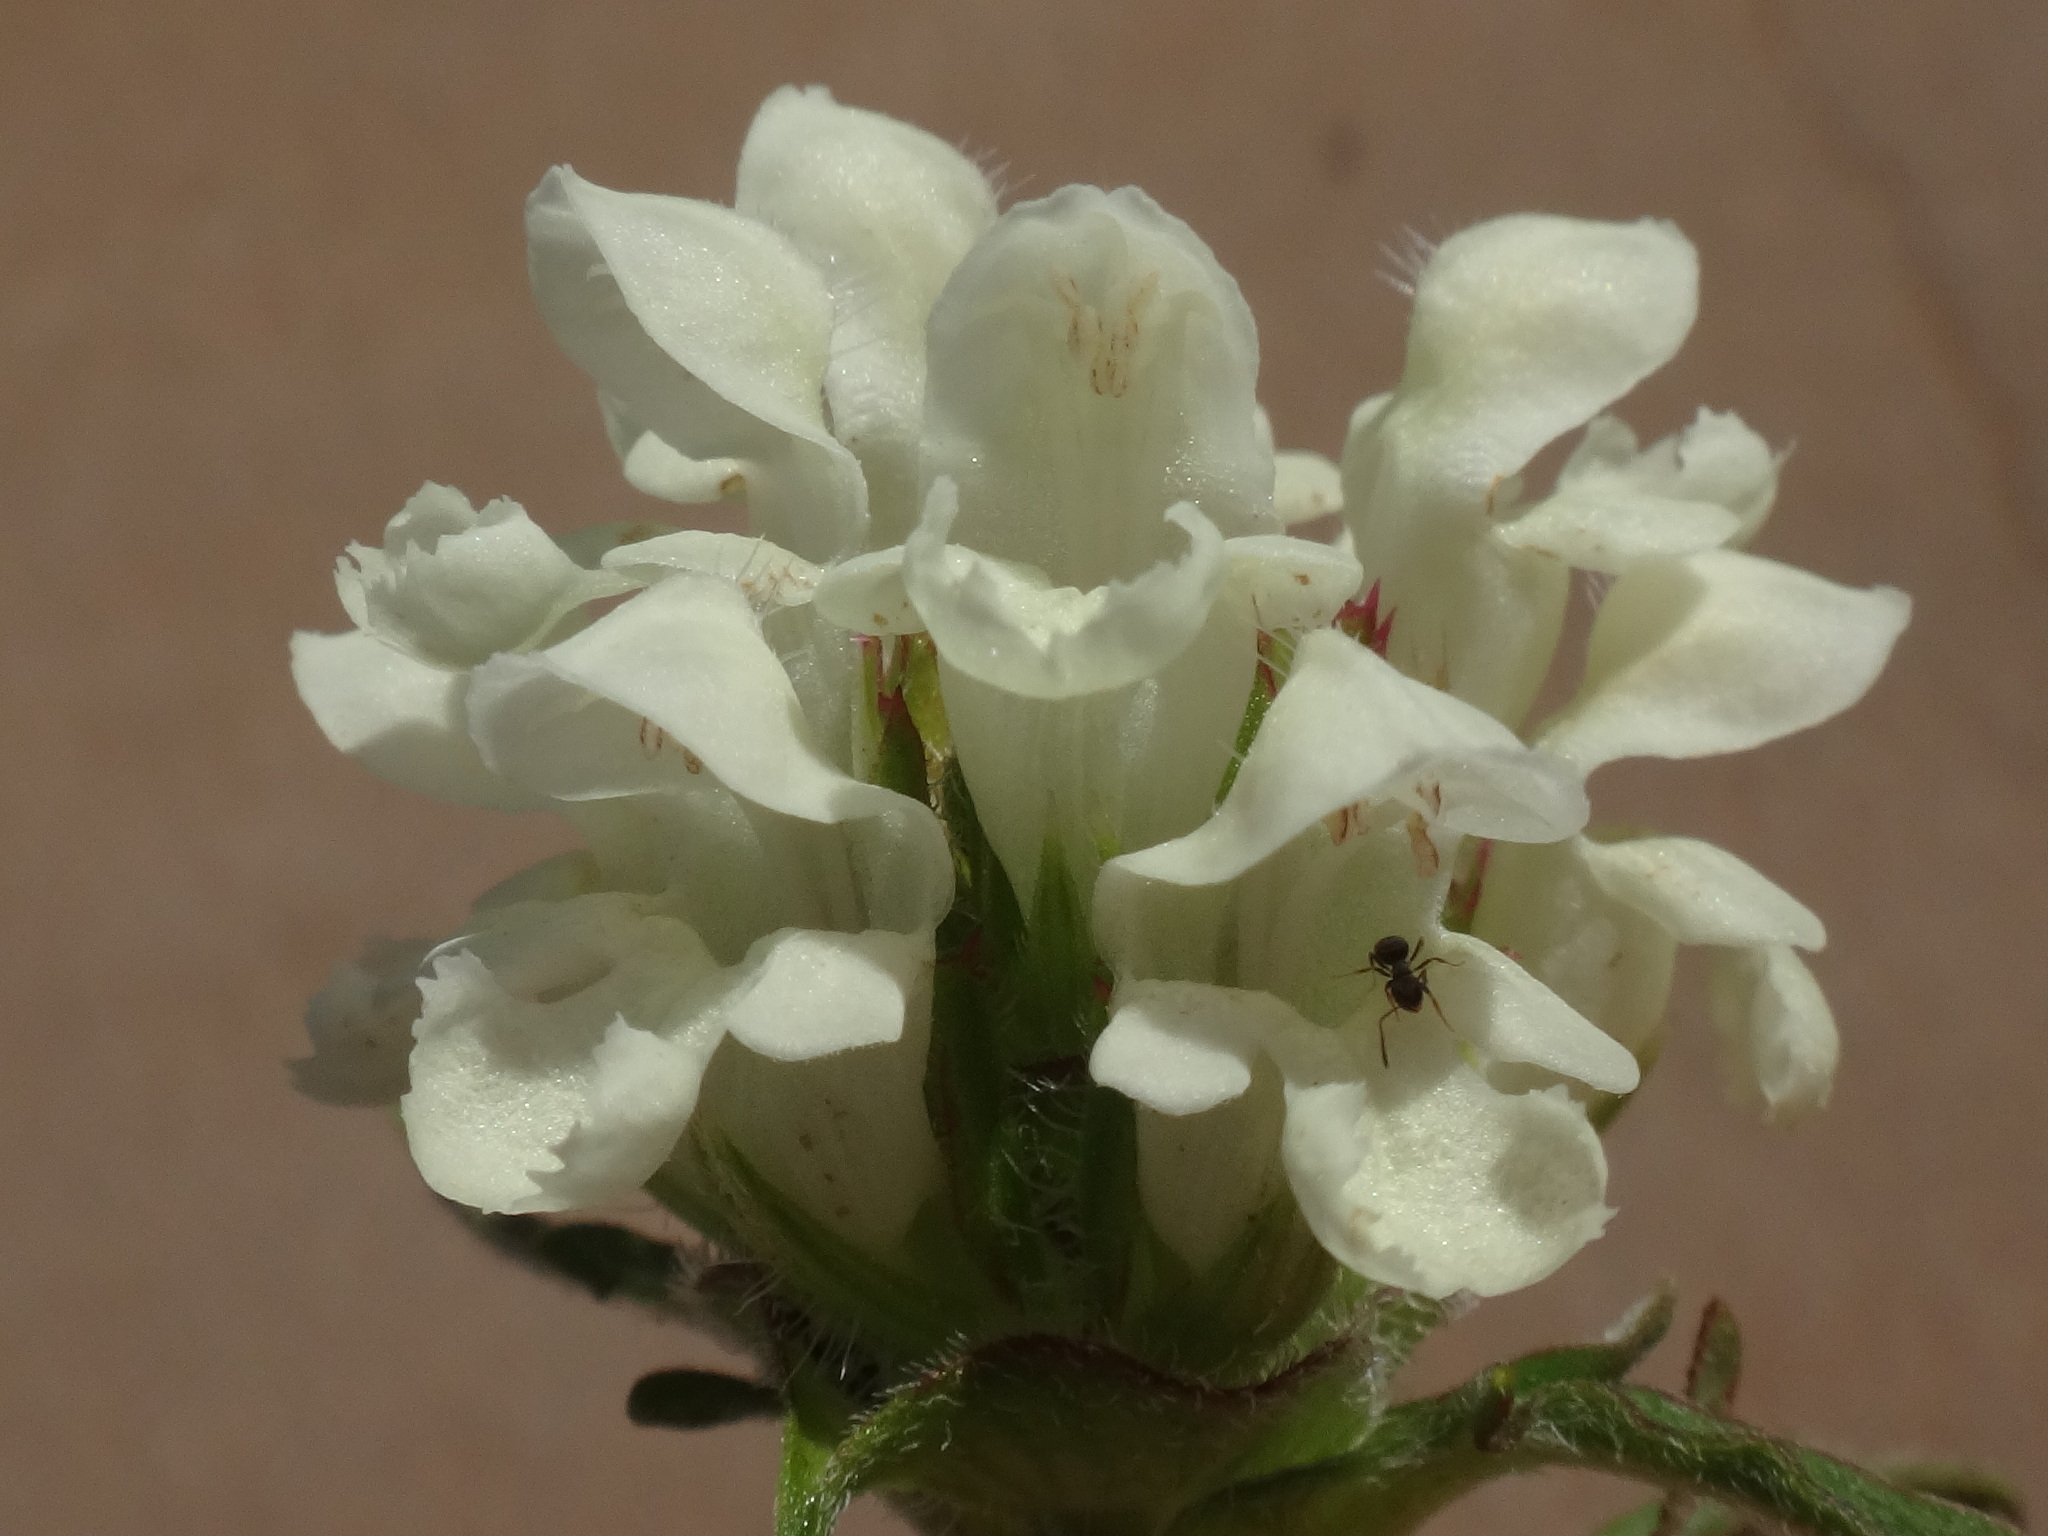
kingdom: Plantae
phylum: Tracheophyta
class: Magnoliopsida
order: Lamiales
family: Lamiaceae
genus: Prunella
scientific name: Prunella laciniata
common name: Cut-leaved selfheal
